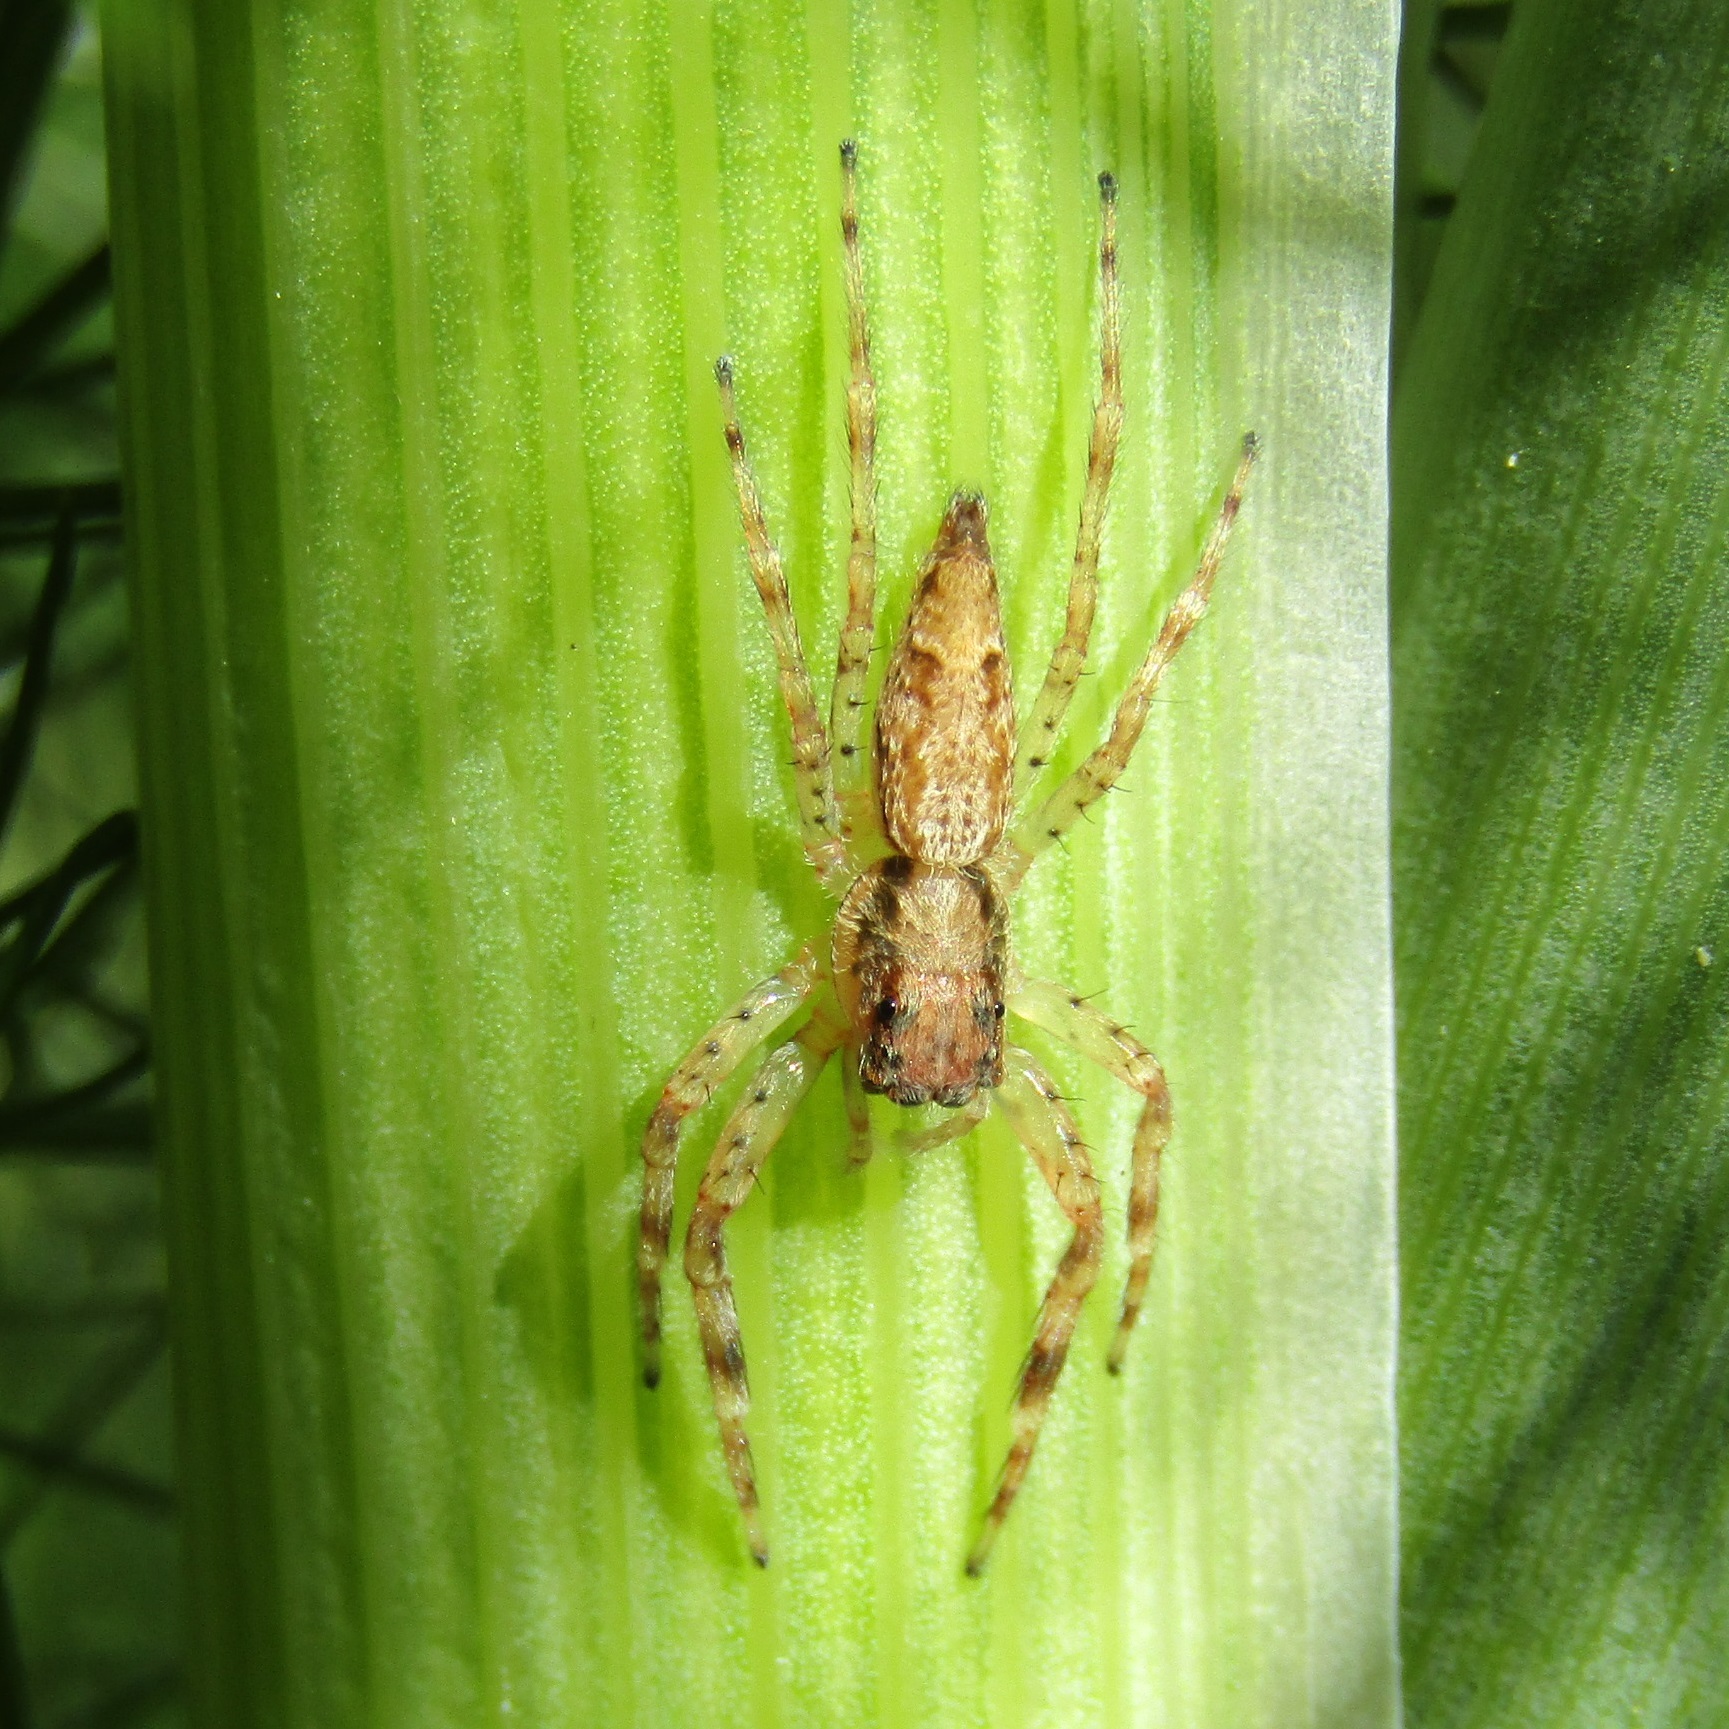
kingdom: Animalia
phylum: Arthropoda
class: Arachnida
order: Araneae
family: Salticidae
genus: Helpis
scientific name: Helpis minitabunda
